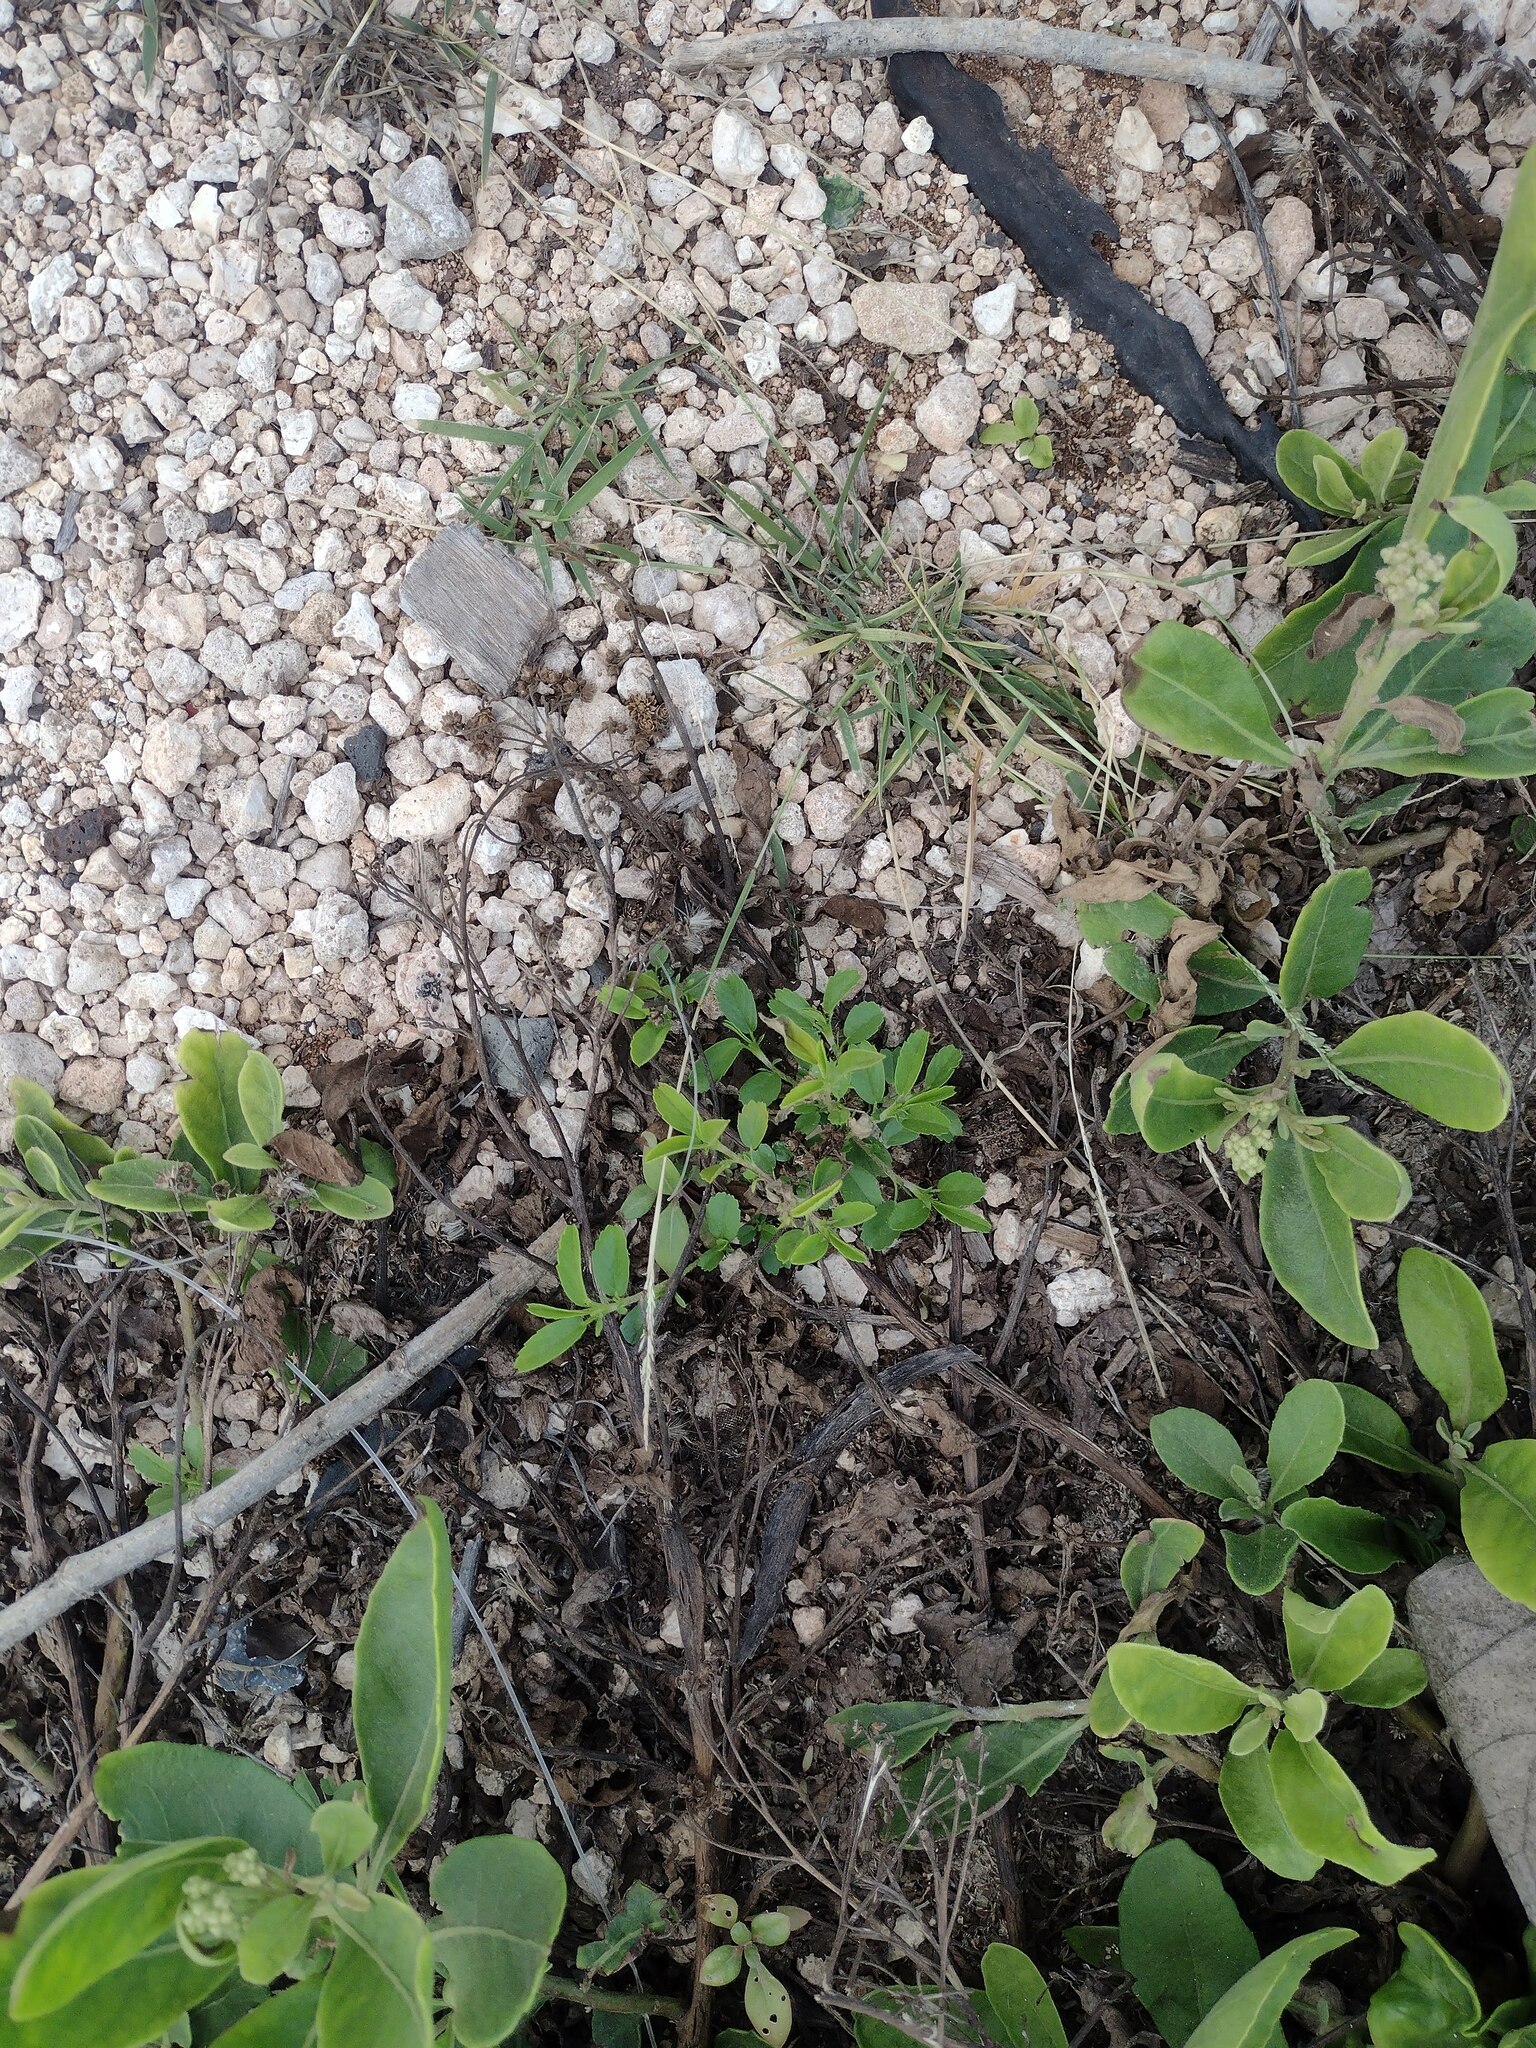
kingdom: Plantae
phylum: Tracheophyta
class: Liliopsida
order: Poales
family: Poaceae
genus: Sporobolus
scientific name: Sporobolus pyramidatus
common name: Whorled dropseed
